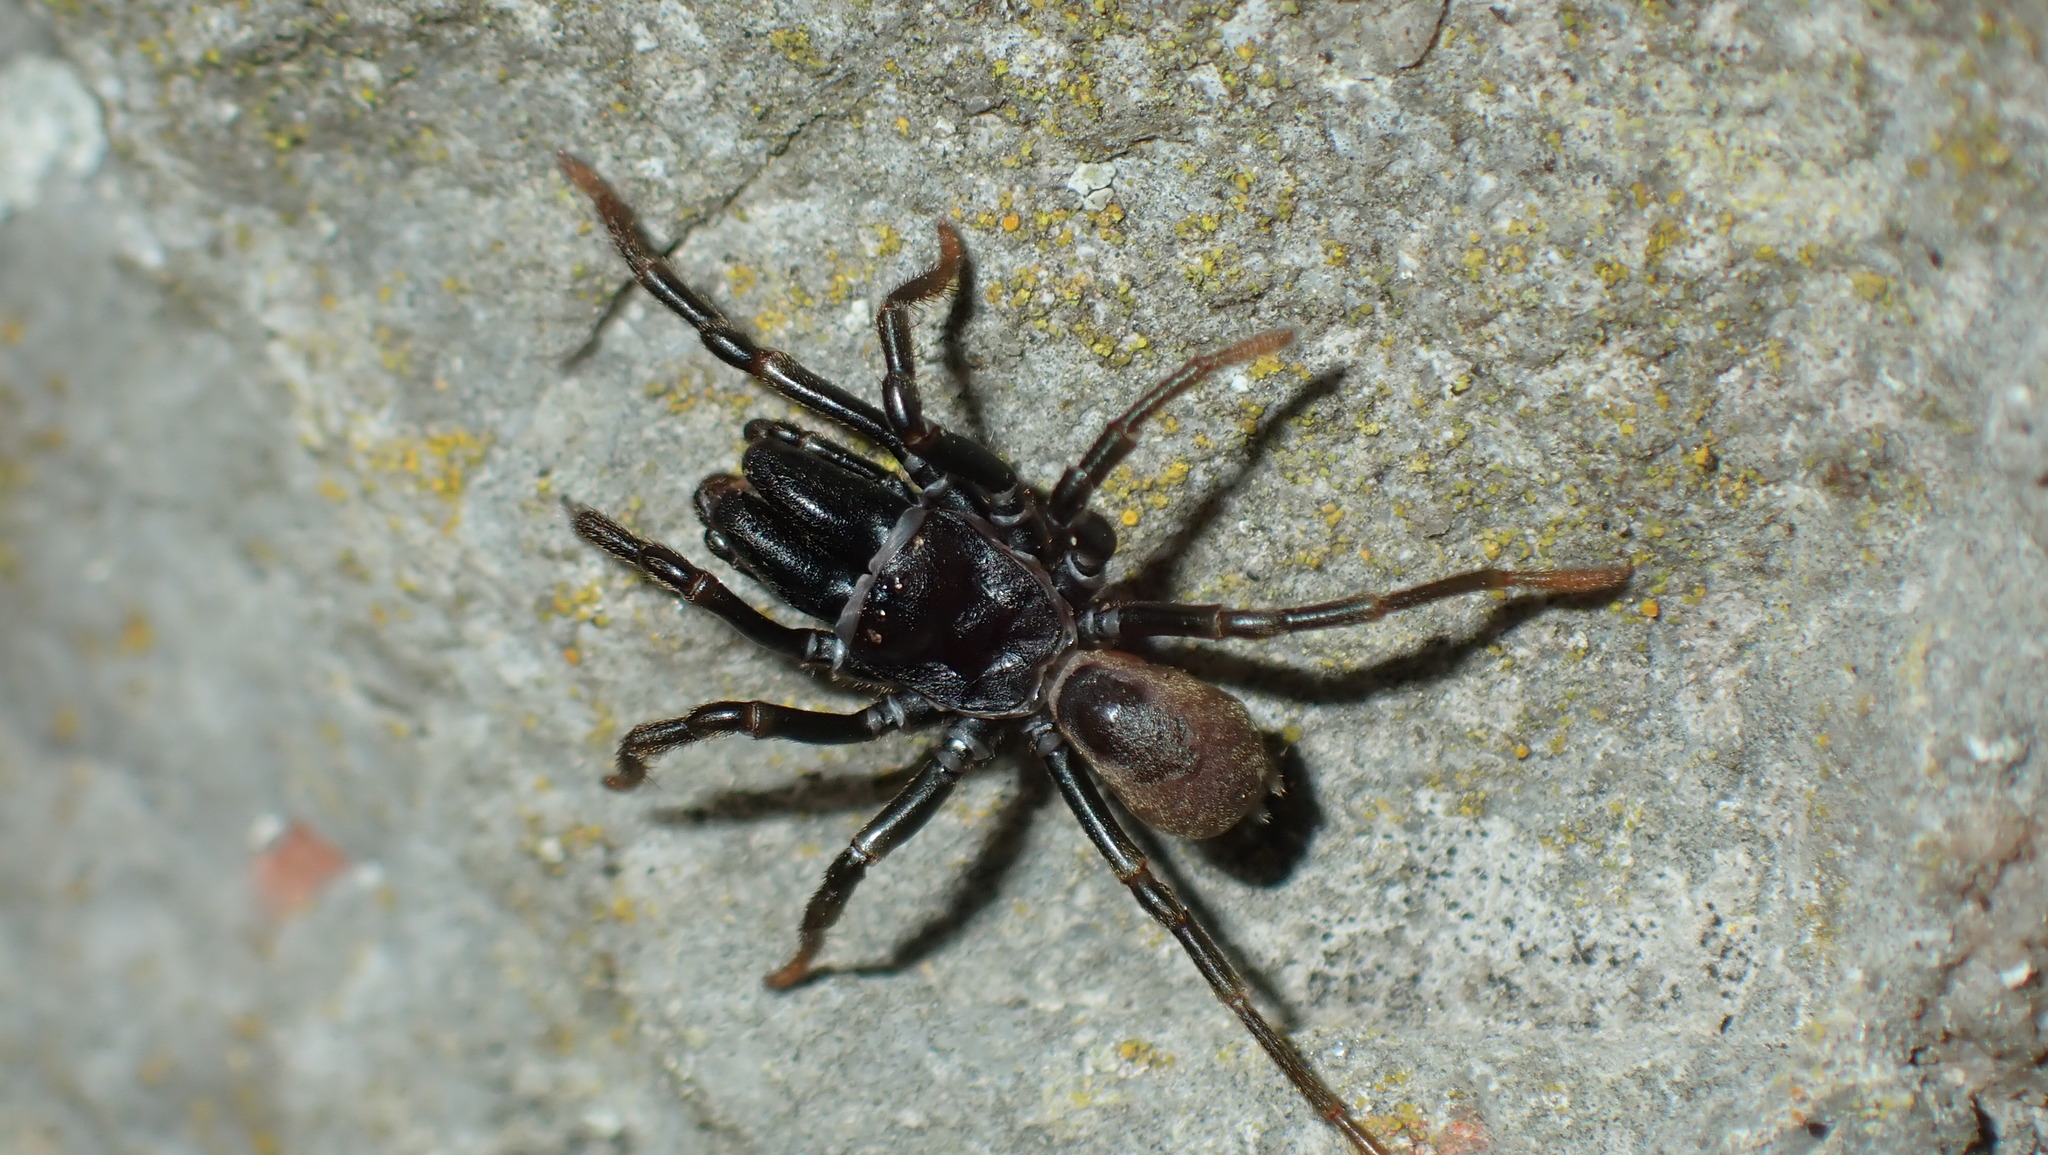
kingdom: Animalia
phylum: Arthropoda
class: Arachnida
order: Araneae
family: Atypidae
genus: Atypus
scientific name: Atypus affinis
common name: Purse web spider
